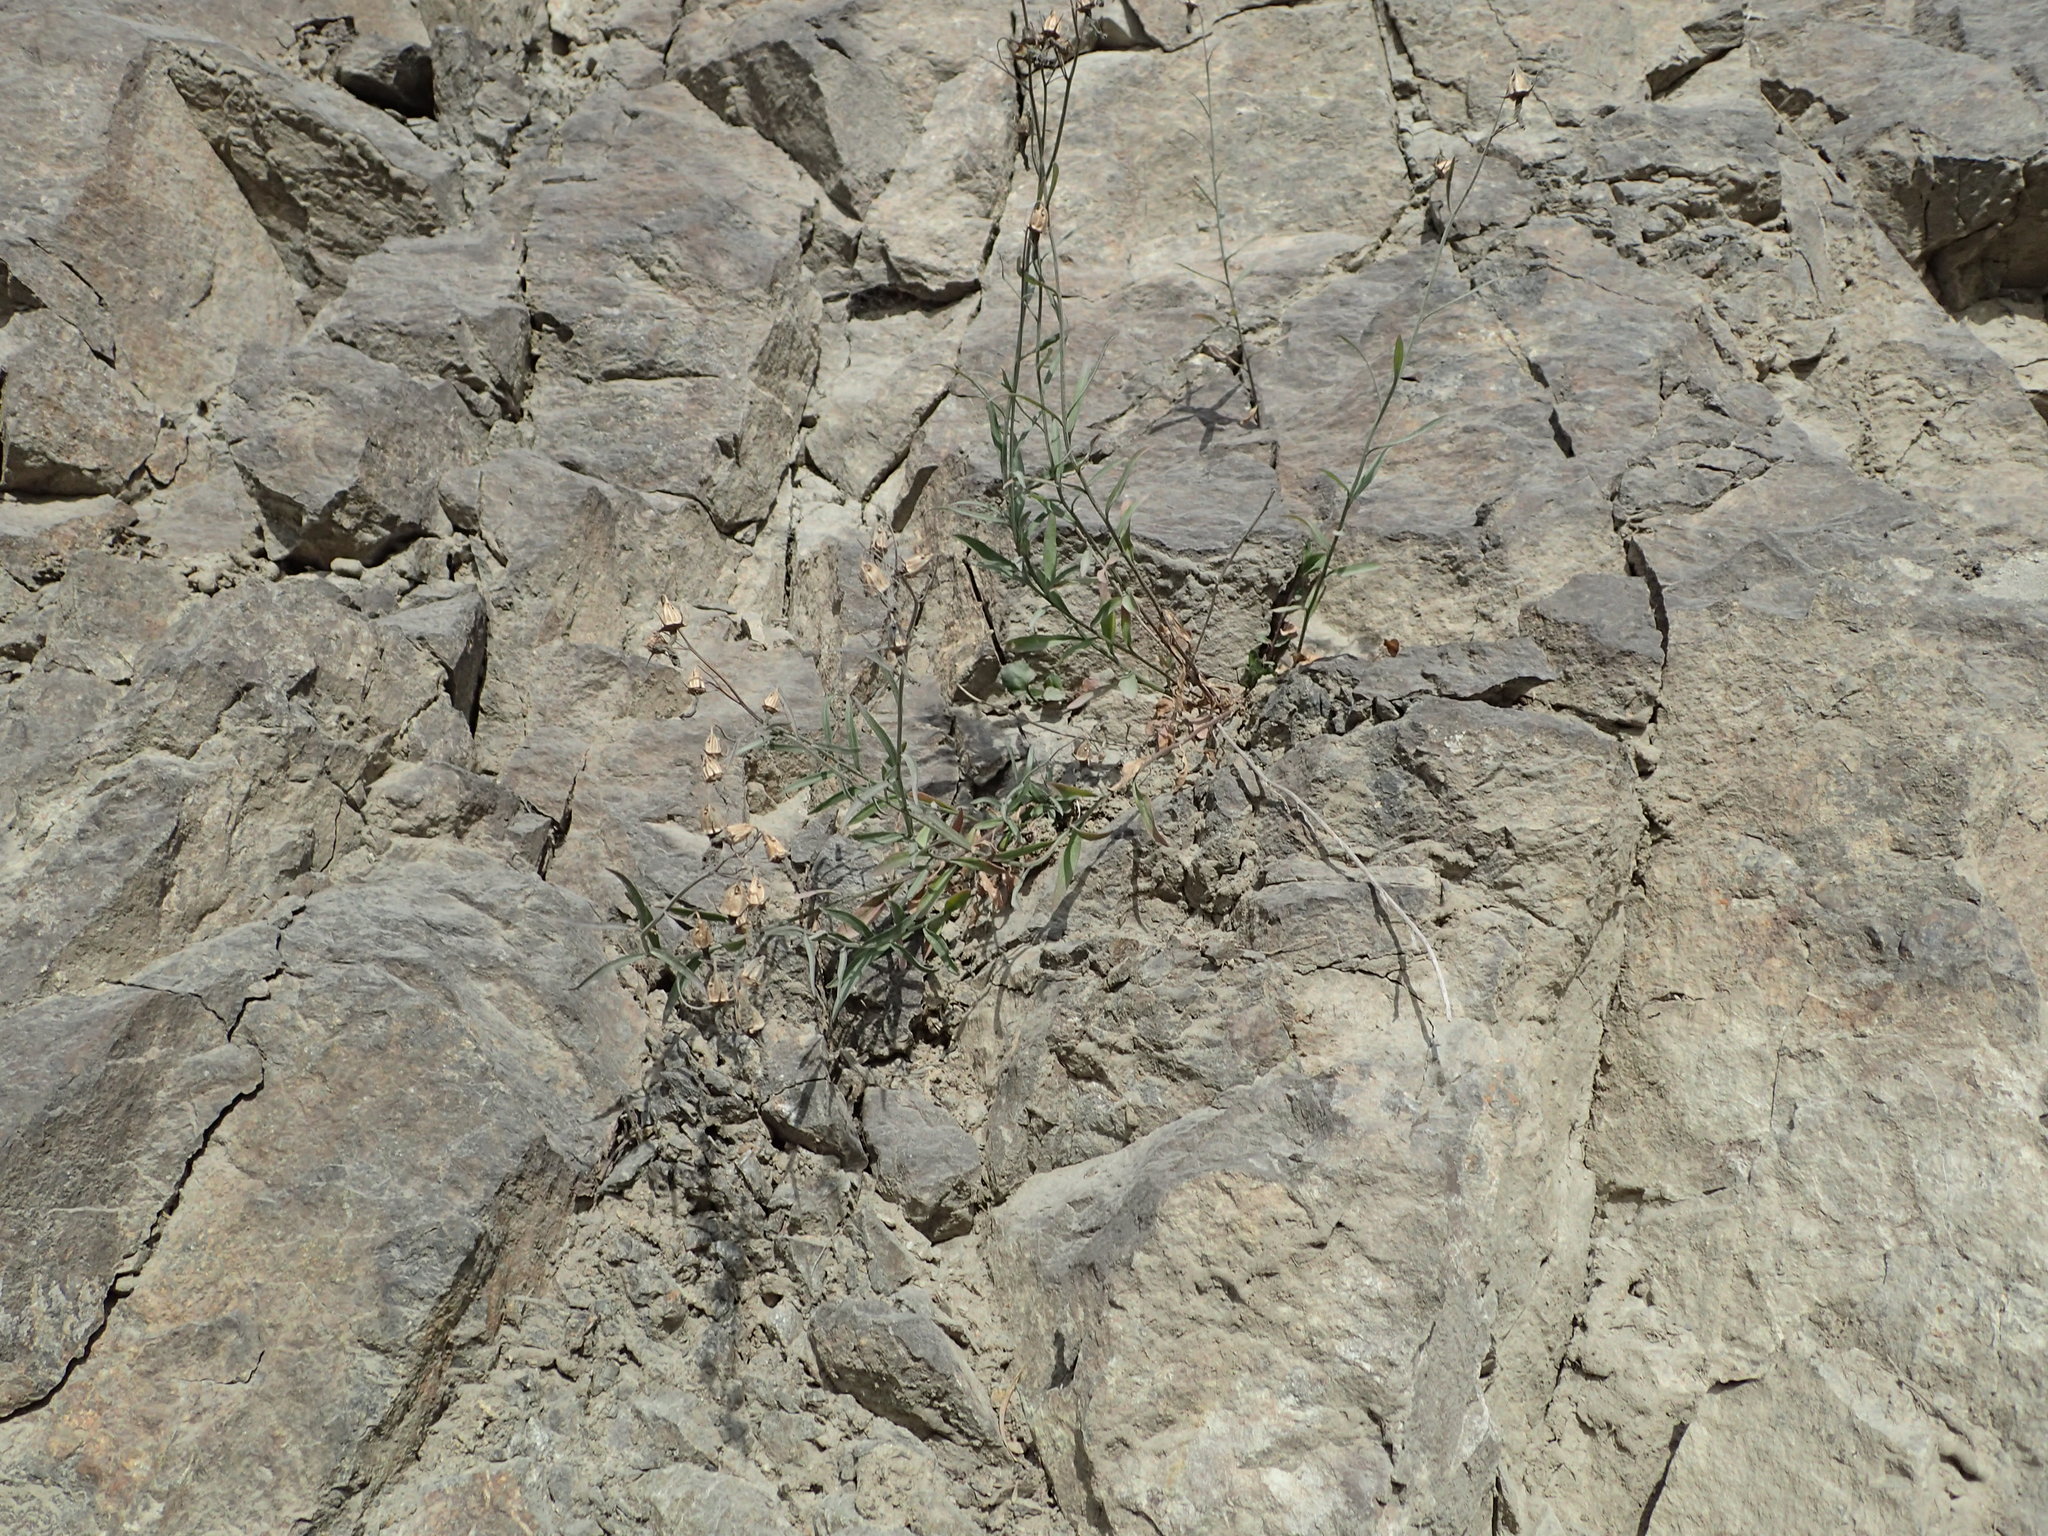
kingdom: Plantae
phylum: Tracheophyta
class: Magnoliopsida
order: Asterales
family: Campanulaceae
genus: Campanula
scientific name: Campanula alaskana
